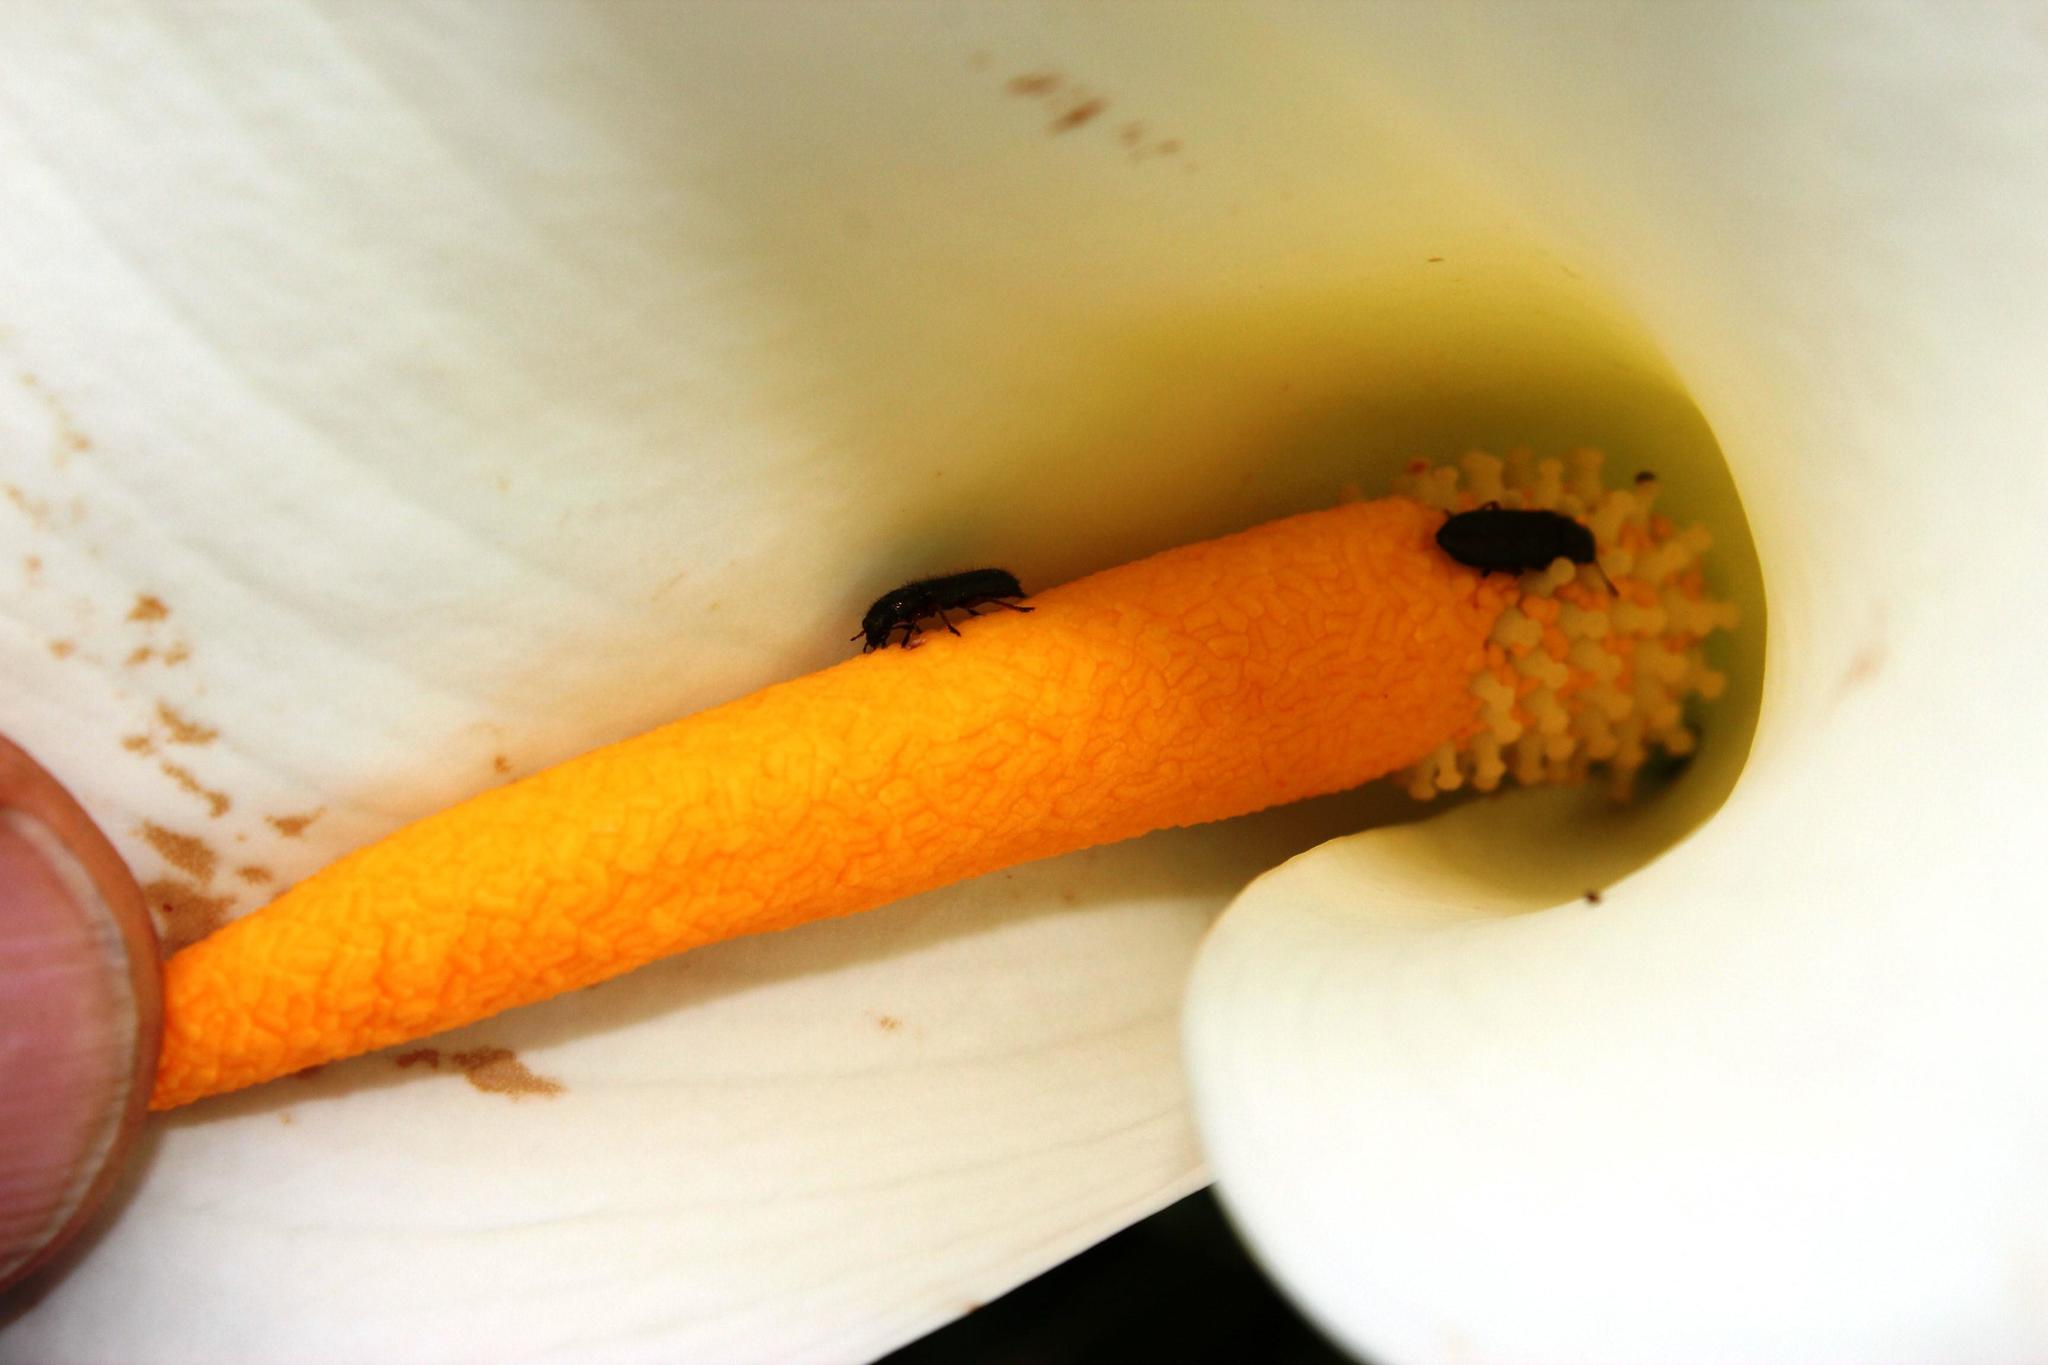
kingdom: Plantae
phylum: Tracheophyta
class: Liliopsida
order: Alismatales
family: Araceae
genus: Zantedeschia
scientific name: Zantedeschia aethiopica
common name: Altar-lily
